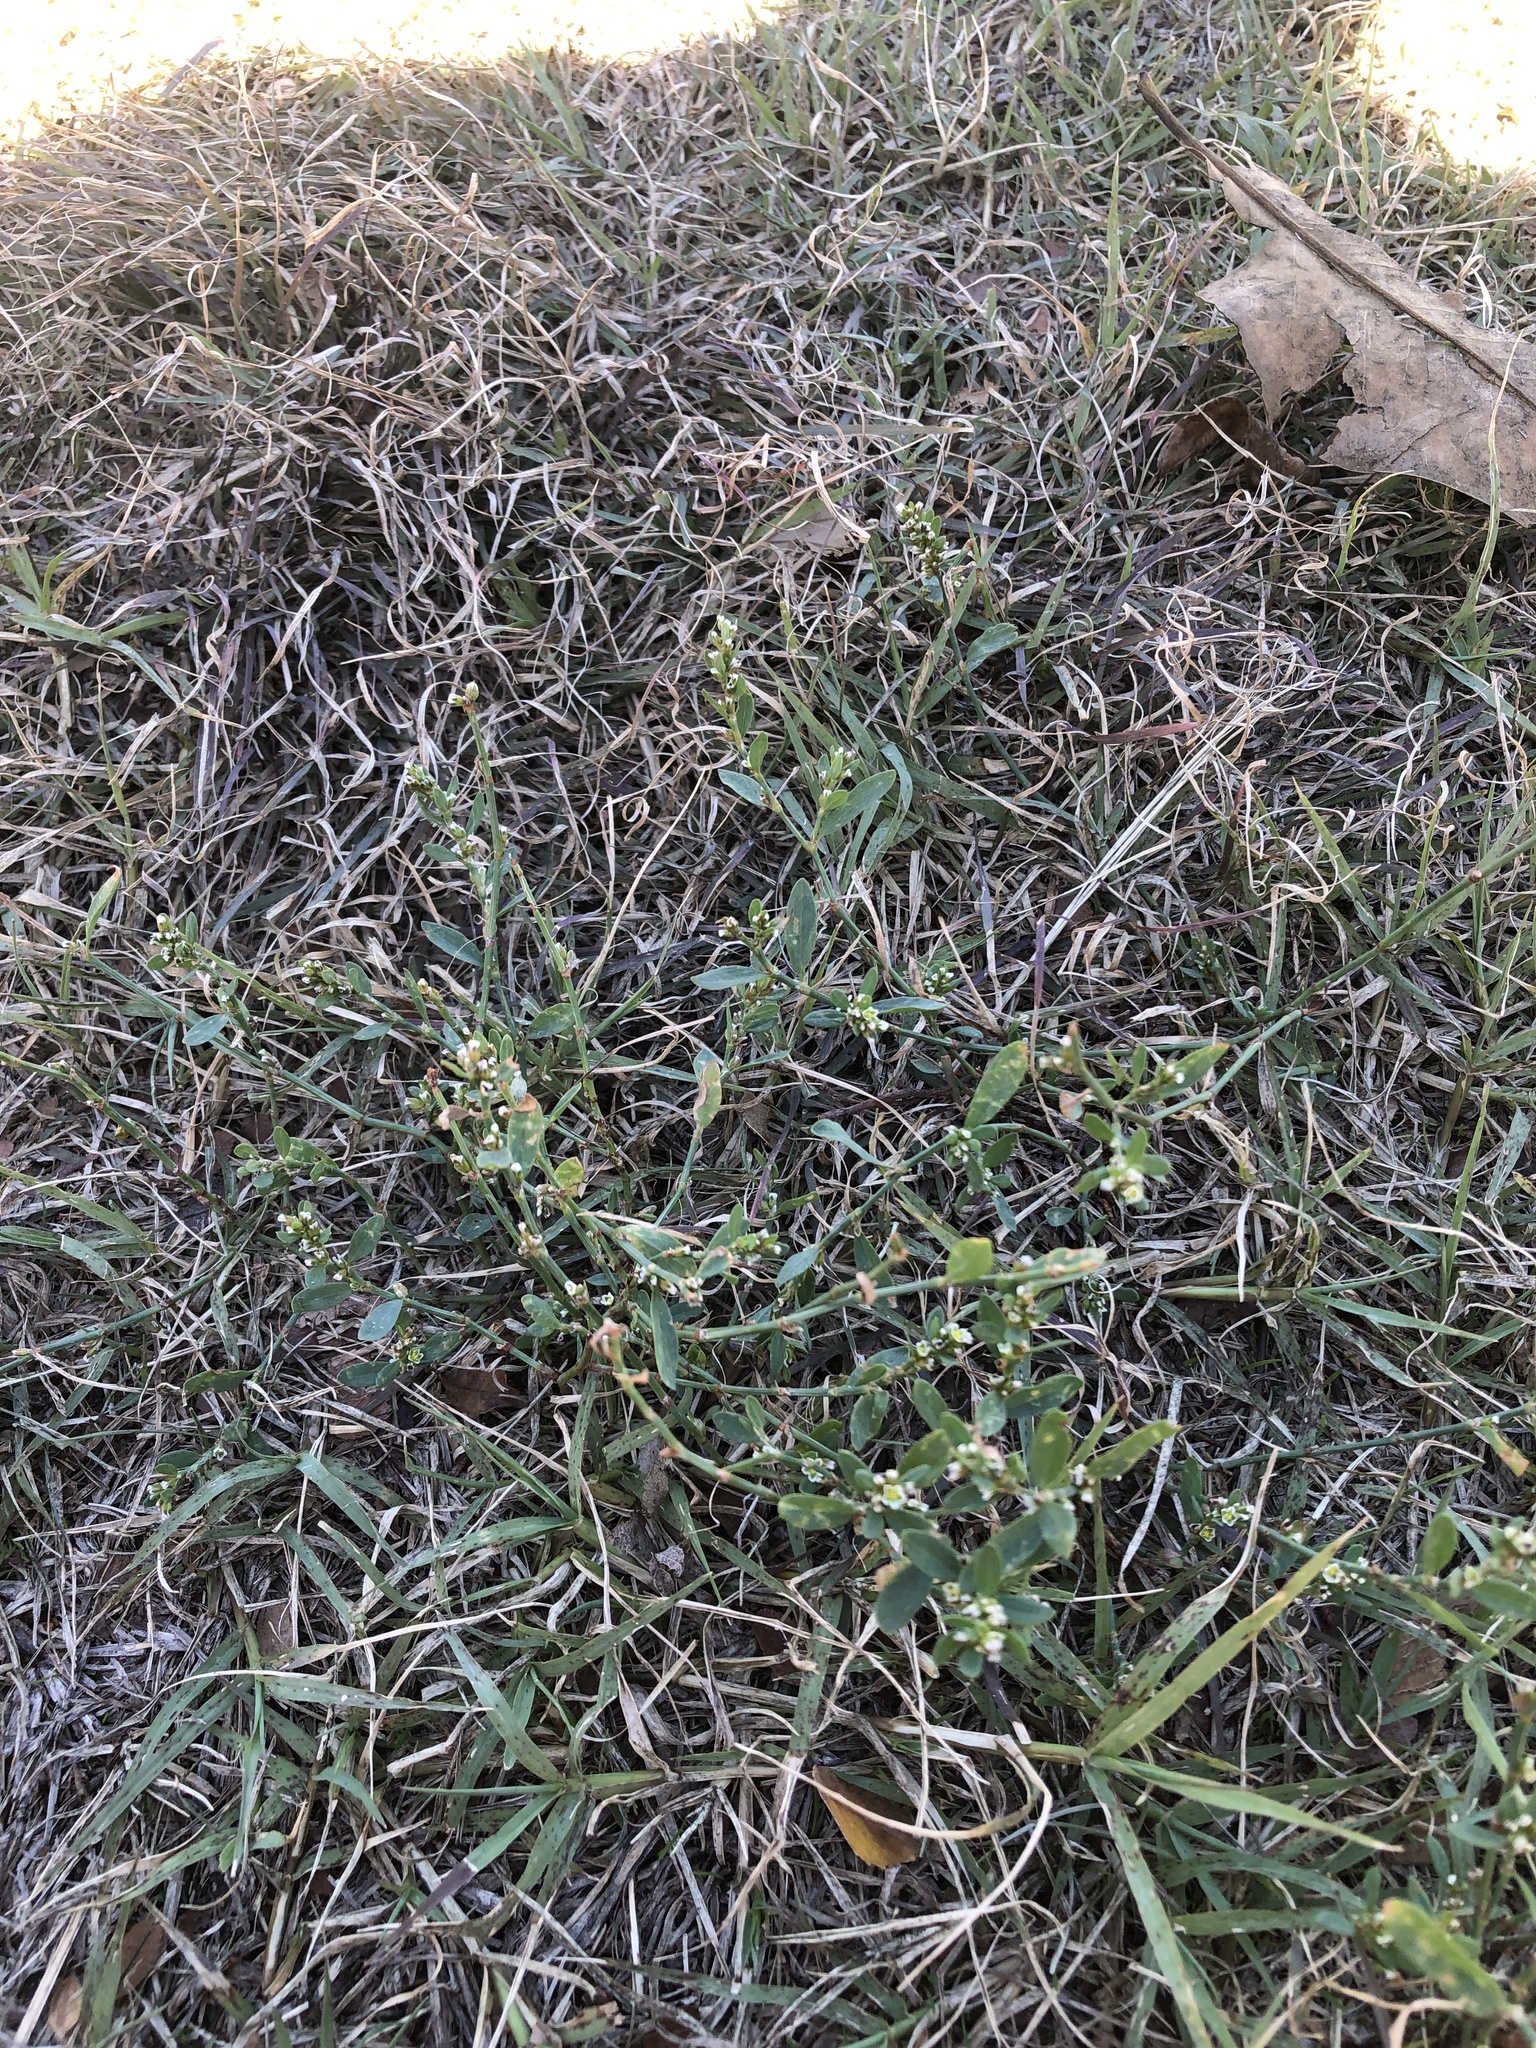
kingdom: Plantae
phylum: Tracheophyta
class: Magnoliopsida
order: Caryophyllales
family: Polygonaceae
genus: Polygonum
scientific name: Polygonum aviculare
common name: Prostrate knotweed
